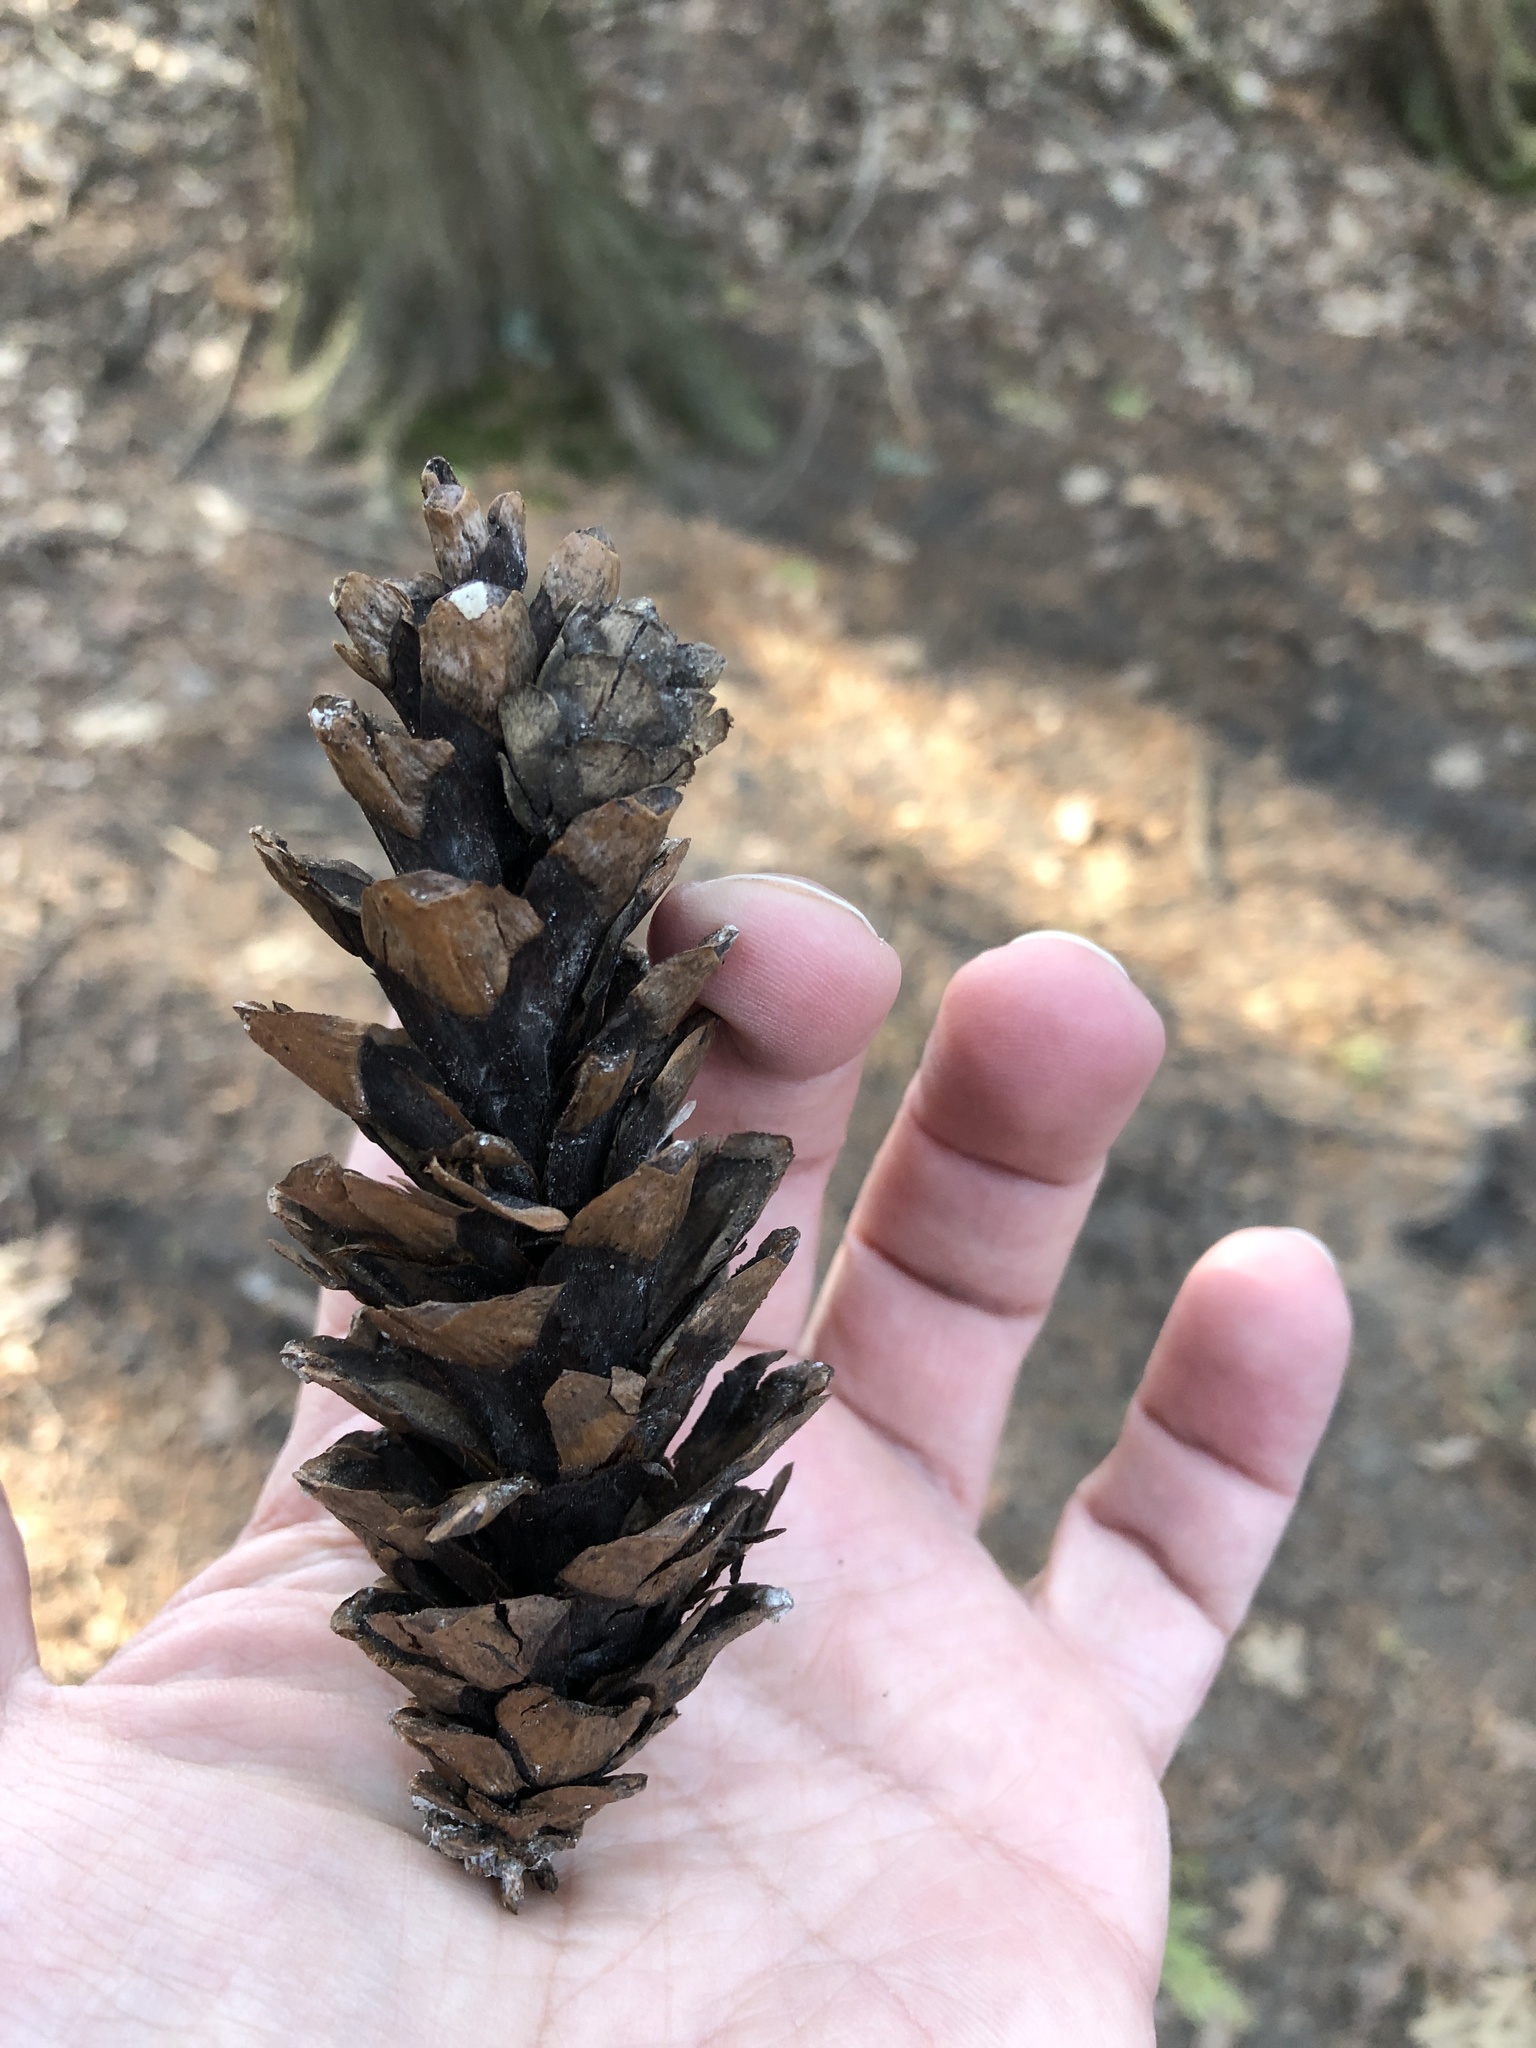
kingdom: Plantae
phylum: Tracheophyta
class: Pinopsida
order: Pinales
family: Pinaceae
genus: Pinus
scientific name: Pinus strobus
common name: Weymouth pine
